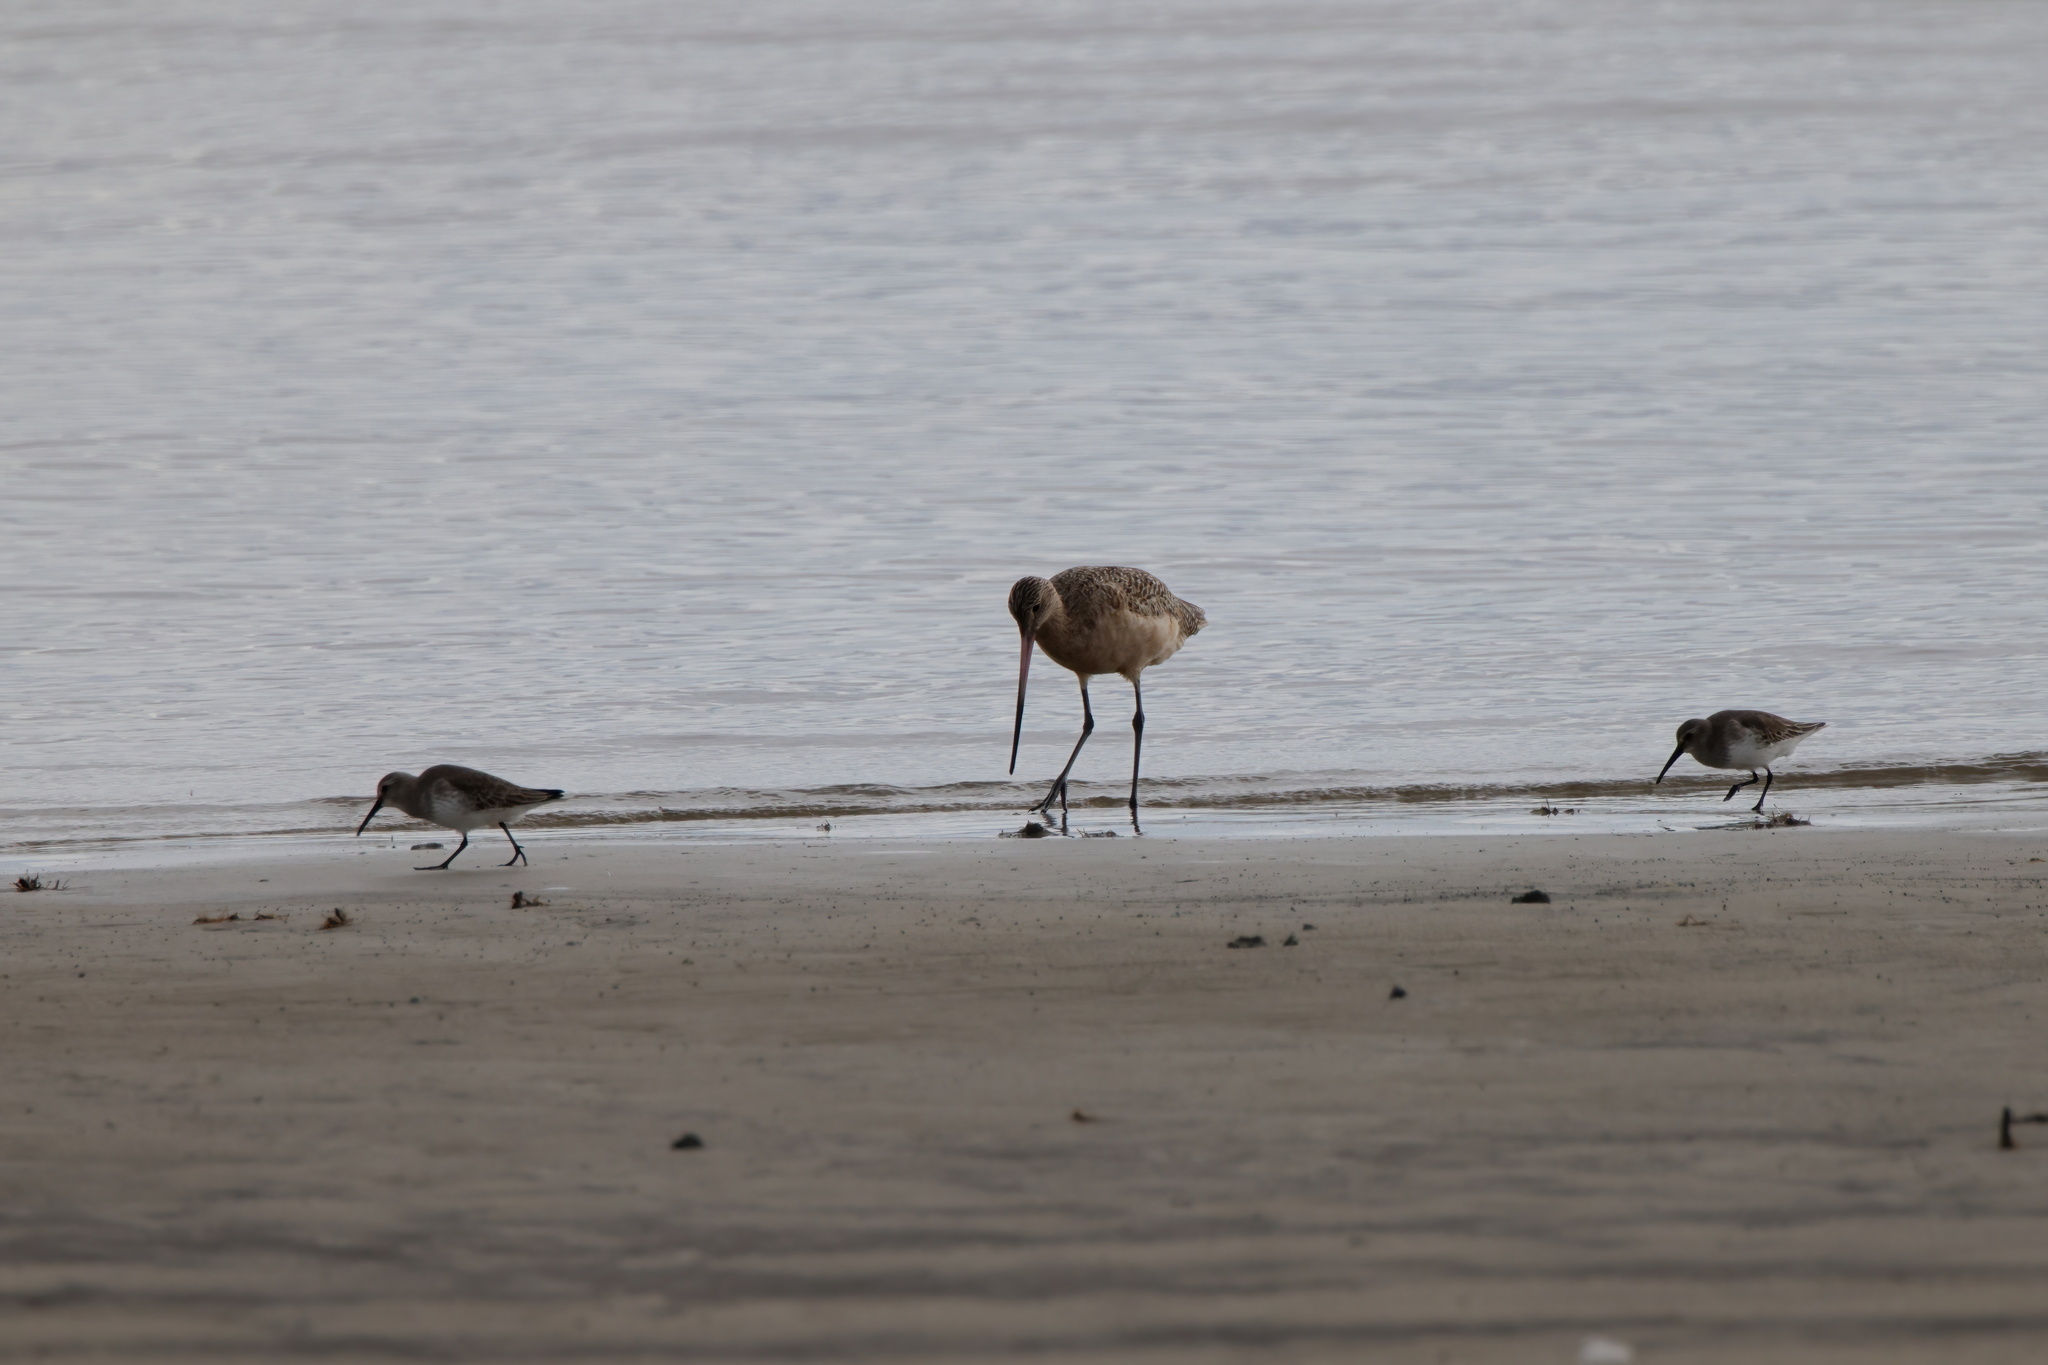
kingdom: Animalia
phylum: Chordata
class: Aves
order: Charadriiformes
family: Scolopacidae
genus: Limosa
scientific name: Limosa fedoa
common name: Marbled godwit
